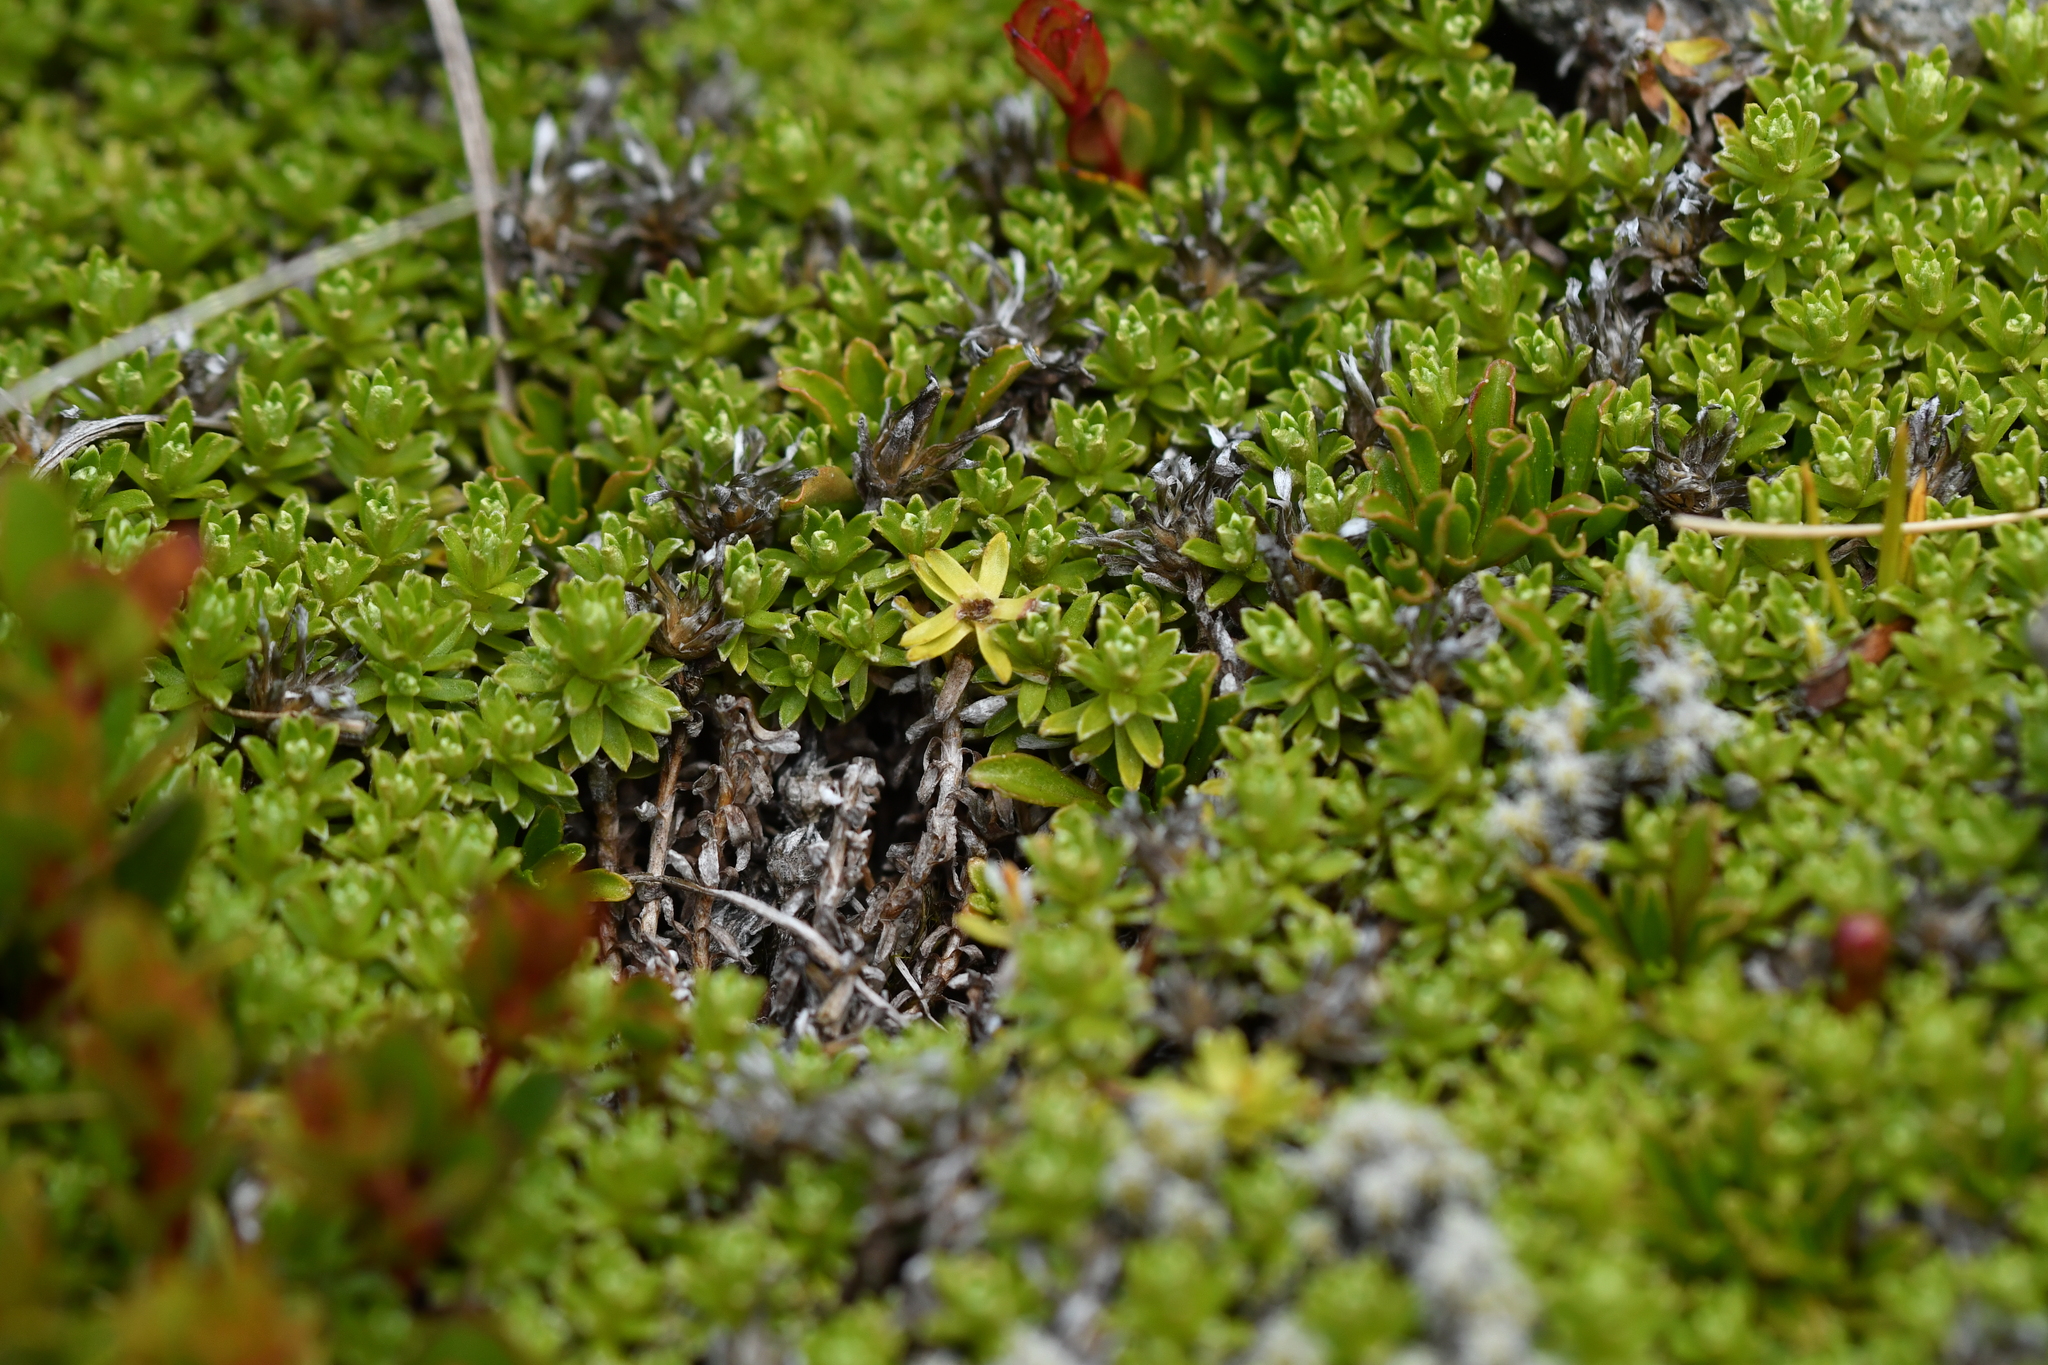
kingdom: Plantae
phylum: Tracheophyta
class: Magnoliopsida
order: Asterales
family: Asteraceae
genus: Raoulia
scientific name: Raoulia subsericea
